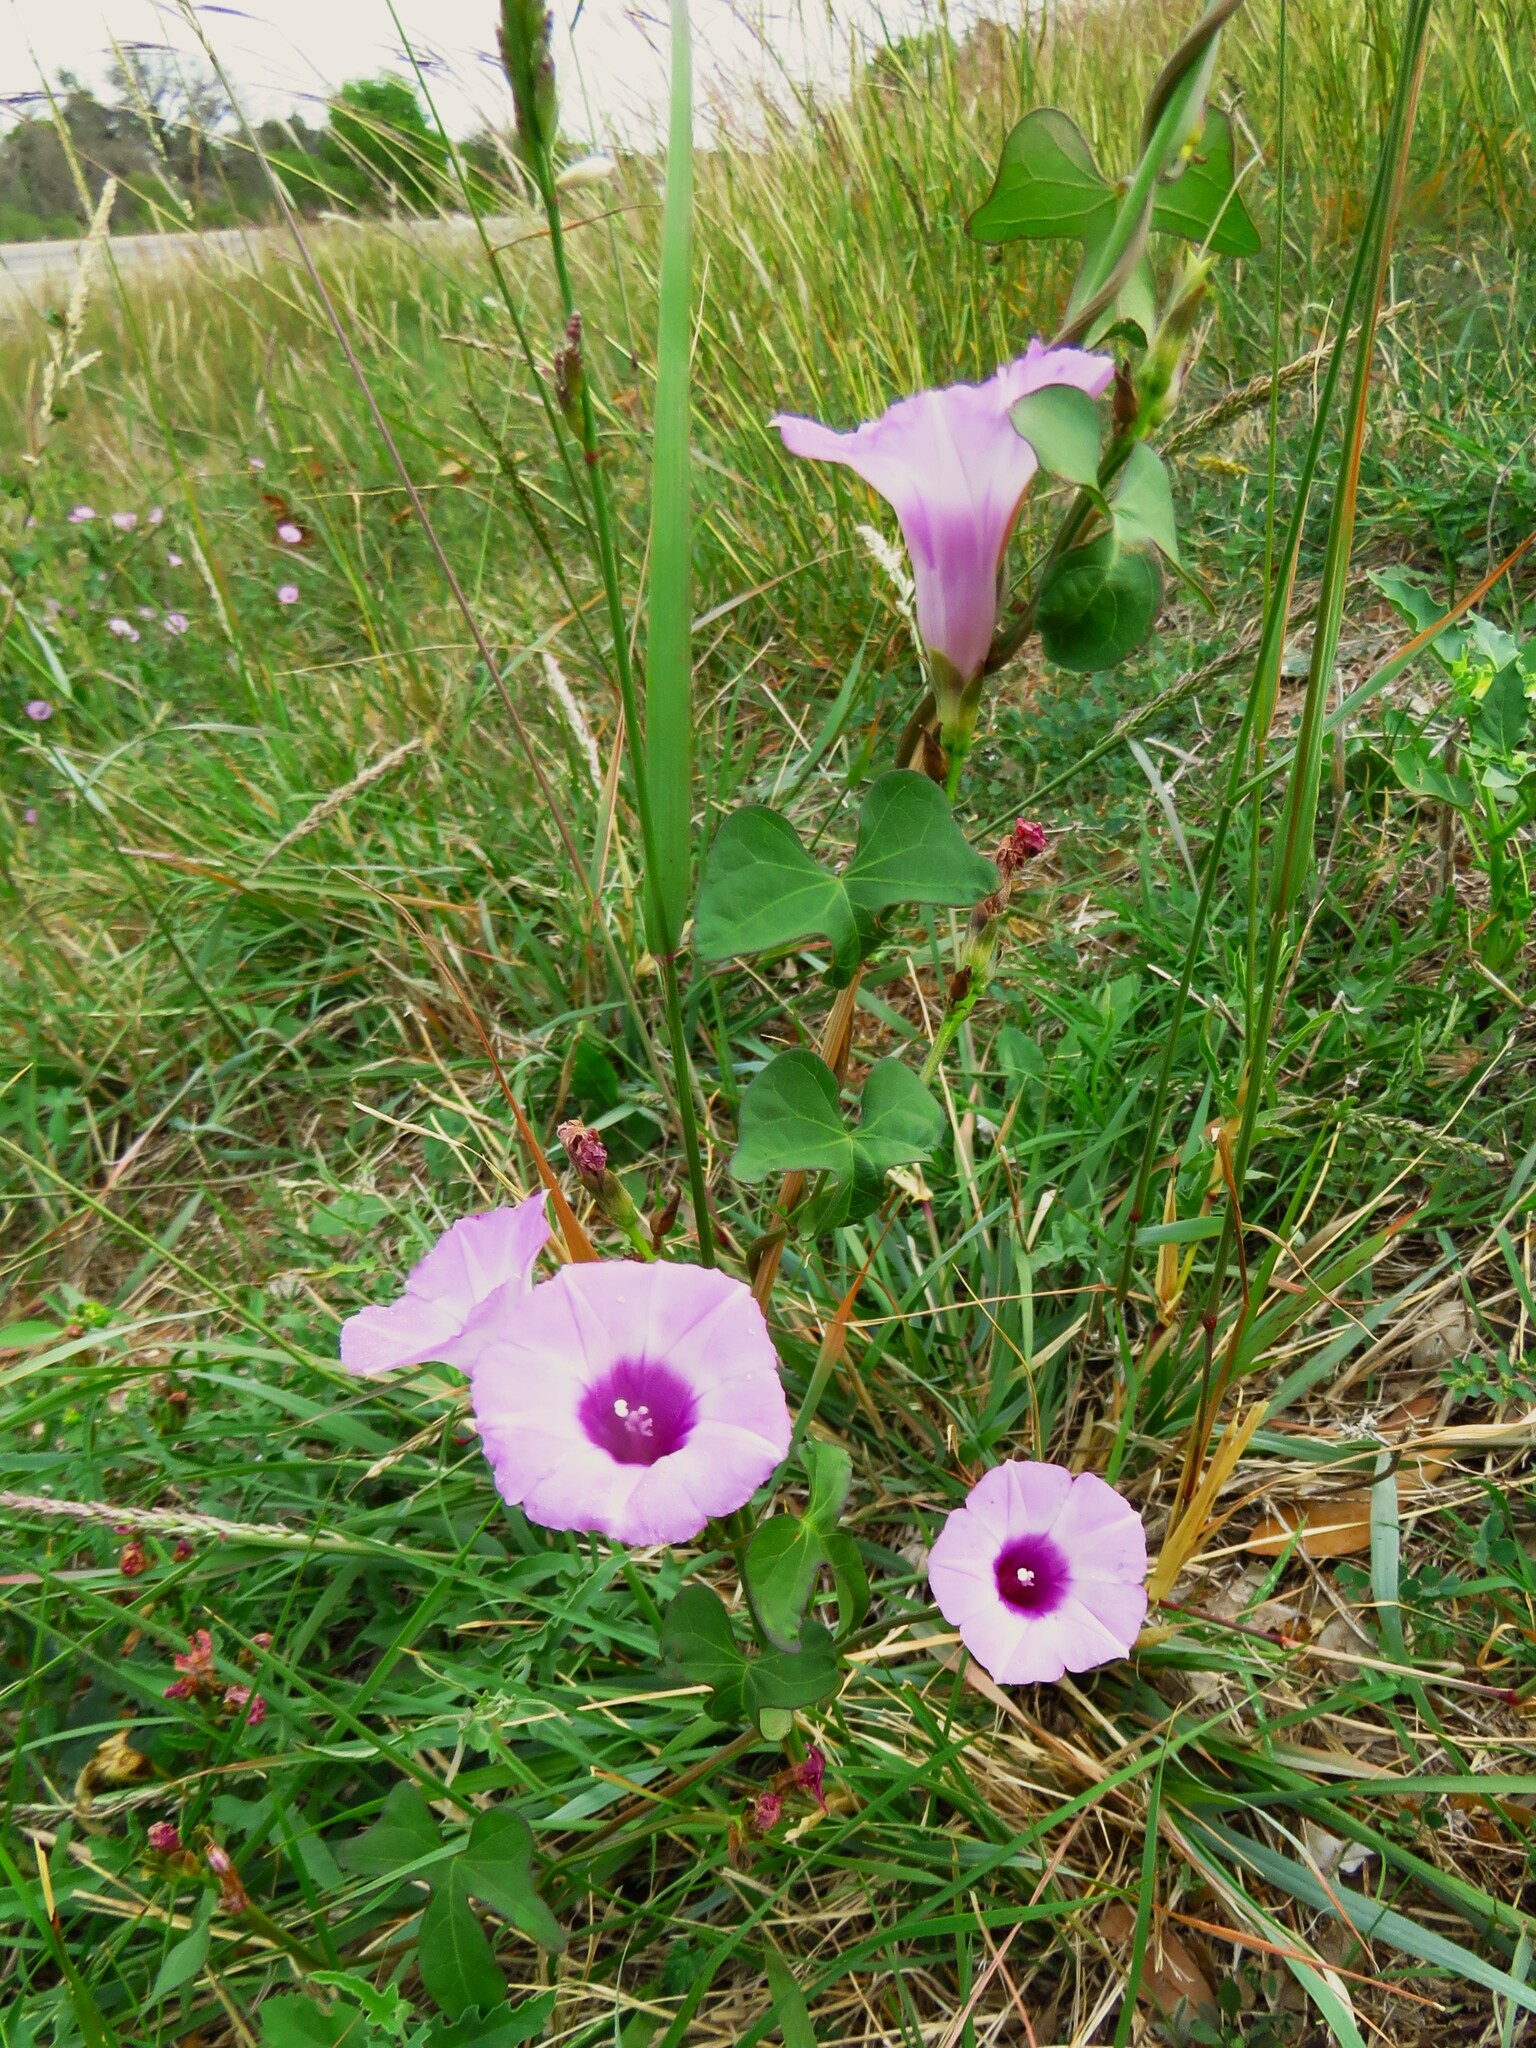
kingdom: Plantae
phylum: Tracheophyta
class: Magnoliopsida
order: Solanales
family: Convolvulaceae
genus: Ipomoea
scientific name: Ipomoea cordatotriloba
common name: Cotton morning glory
